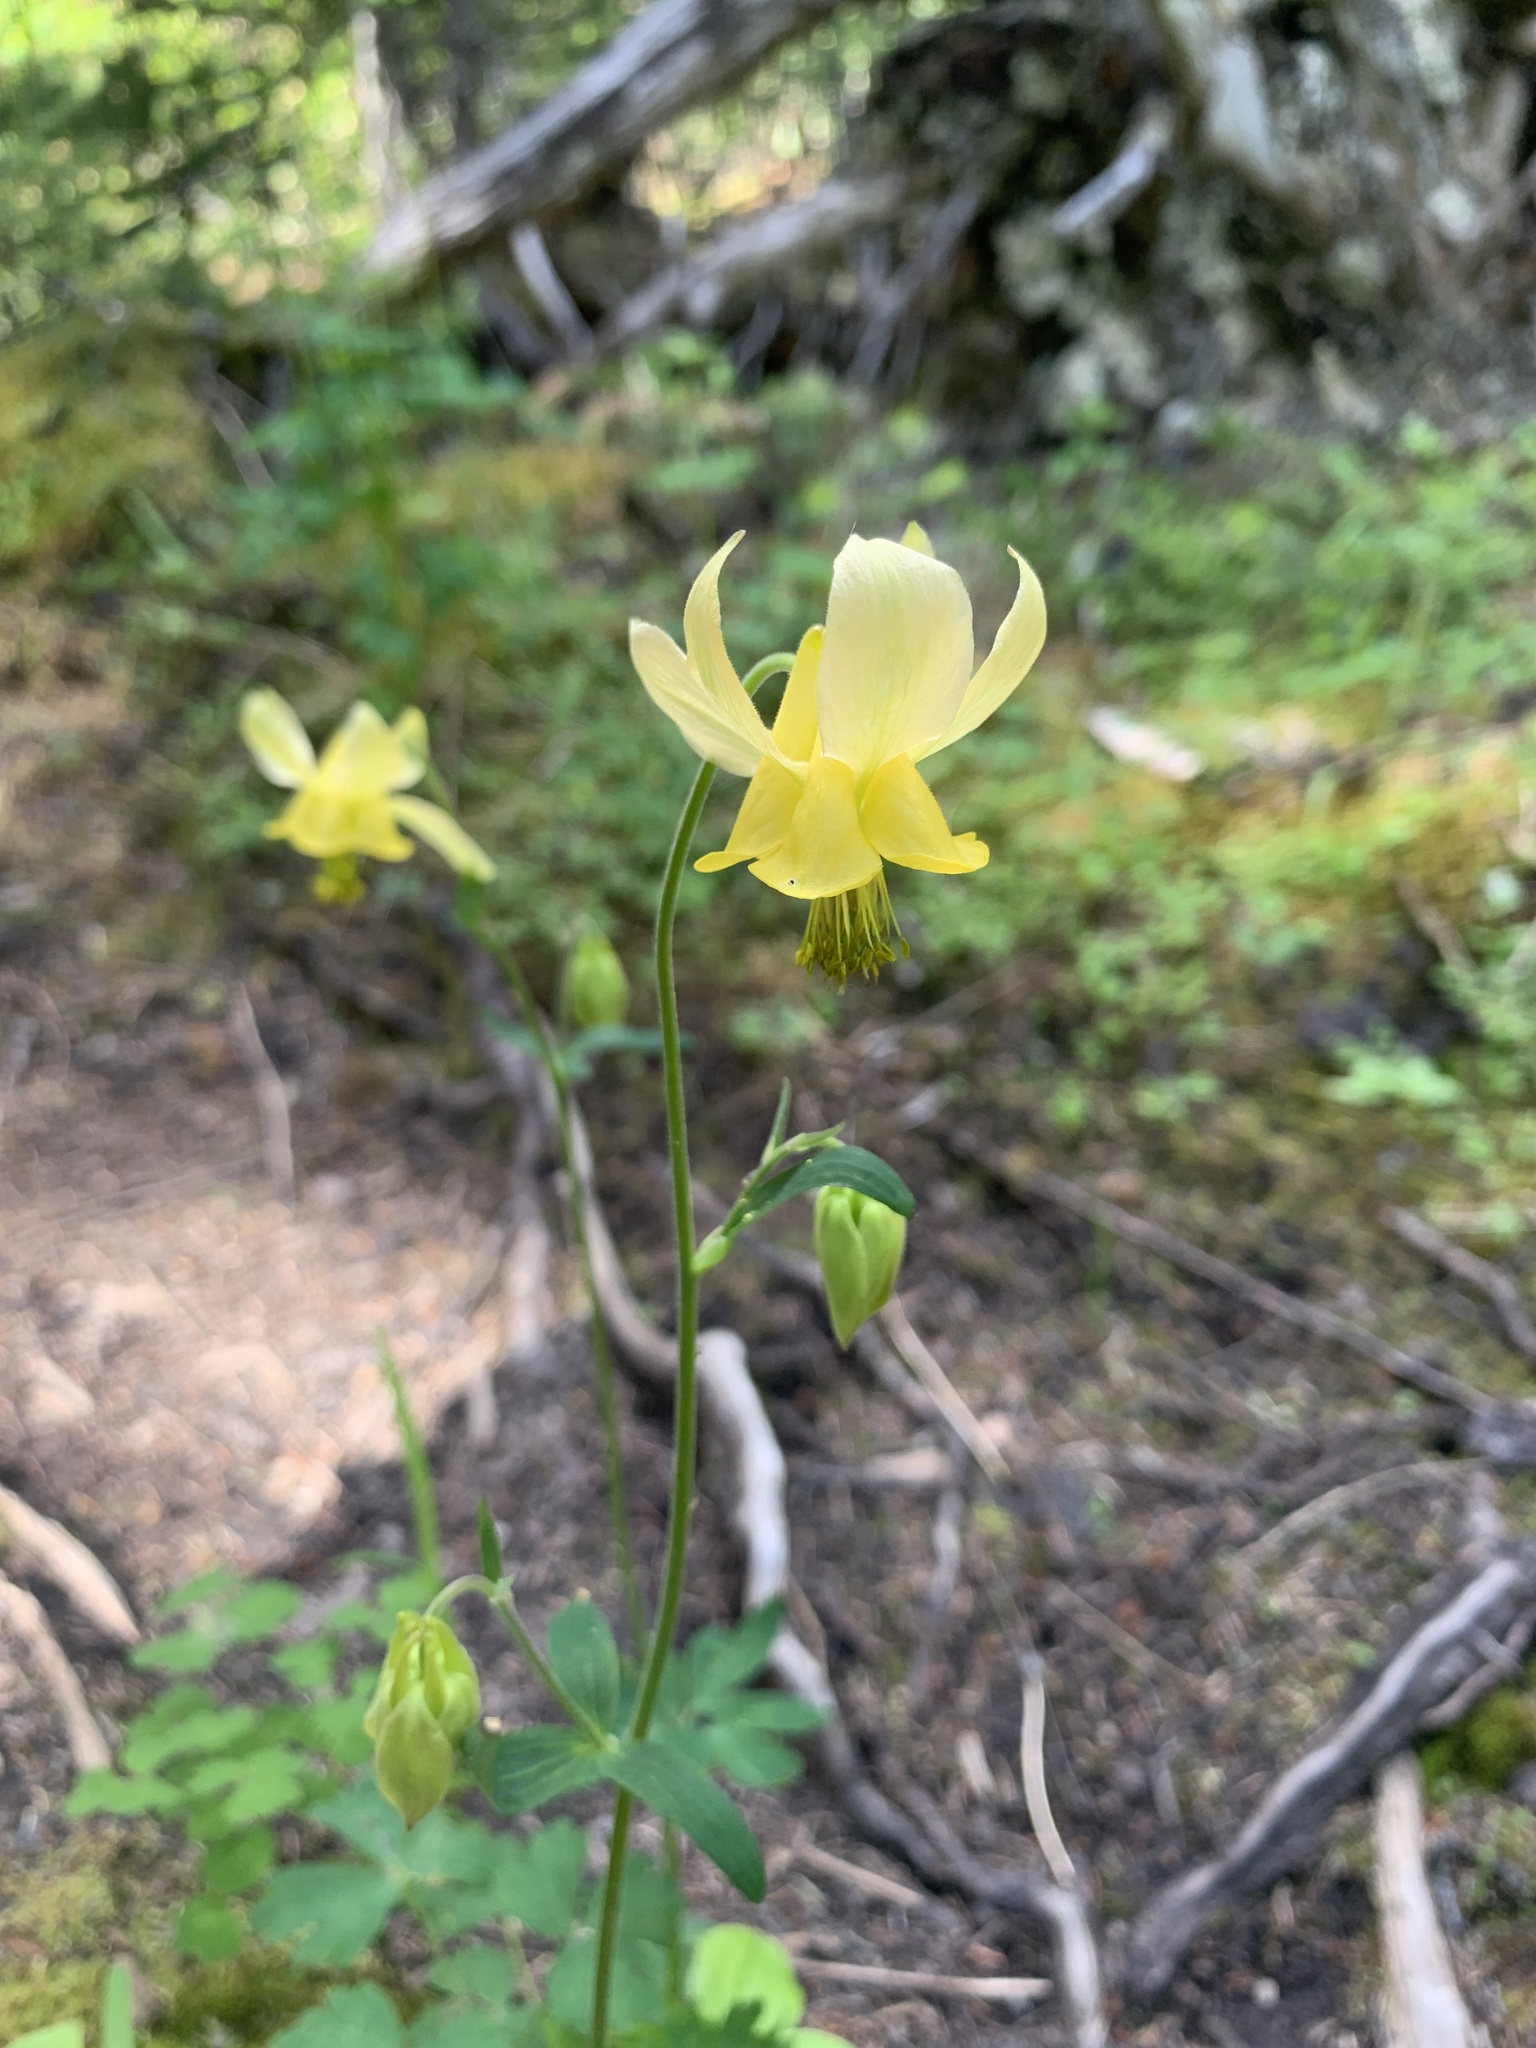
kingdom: Plantae
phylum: Tracheophyta
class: Magnoliopsida
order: Ranunculales
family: Ranunculaceae
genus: Aquilegia
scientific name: Aquilegia flavescens
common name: Yellow columbine
